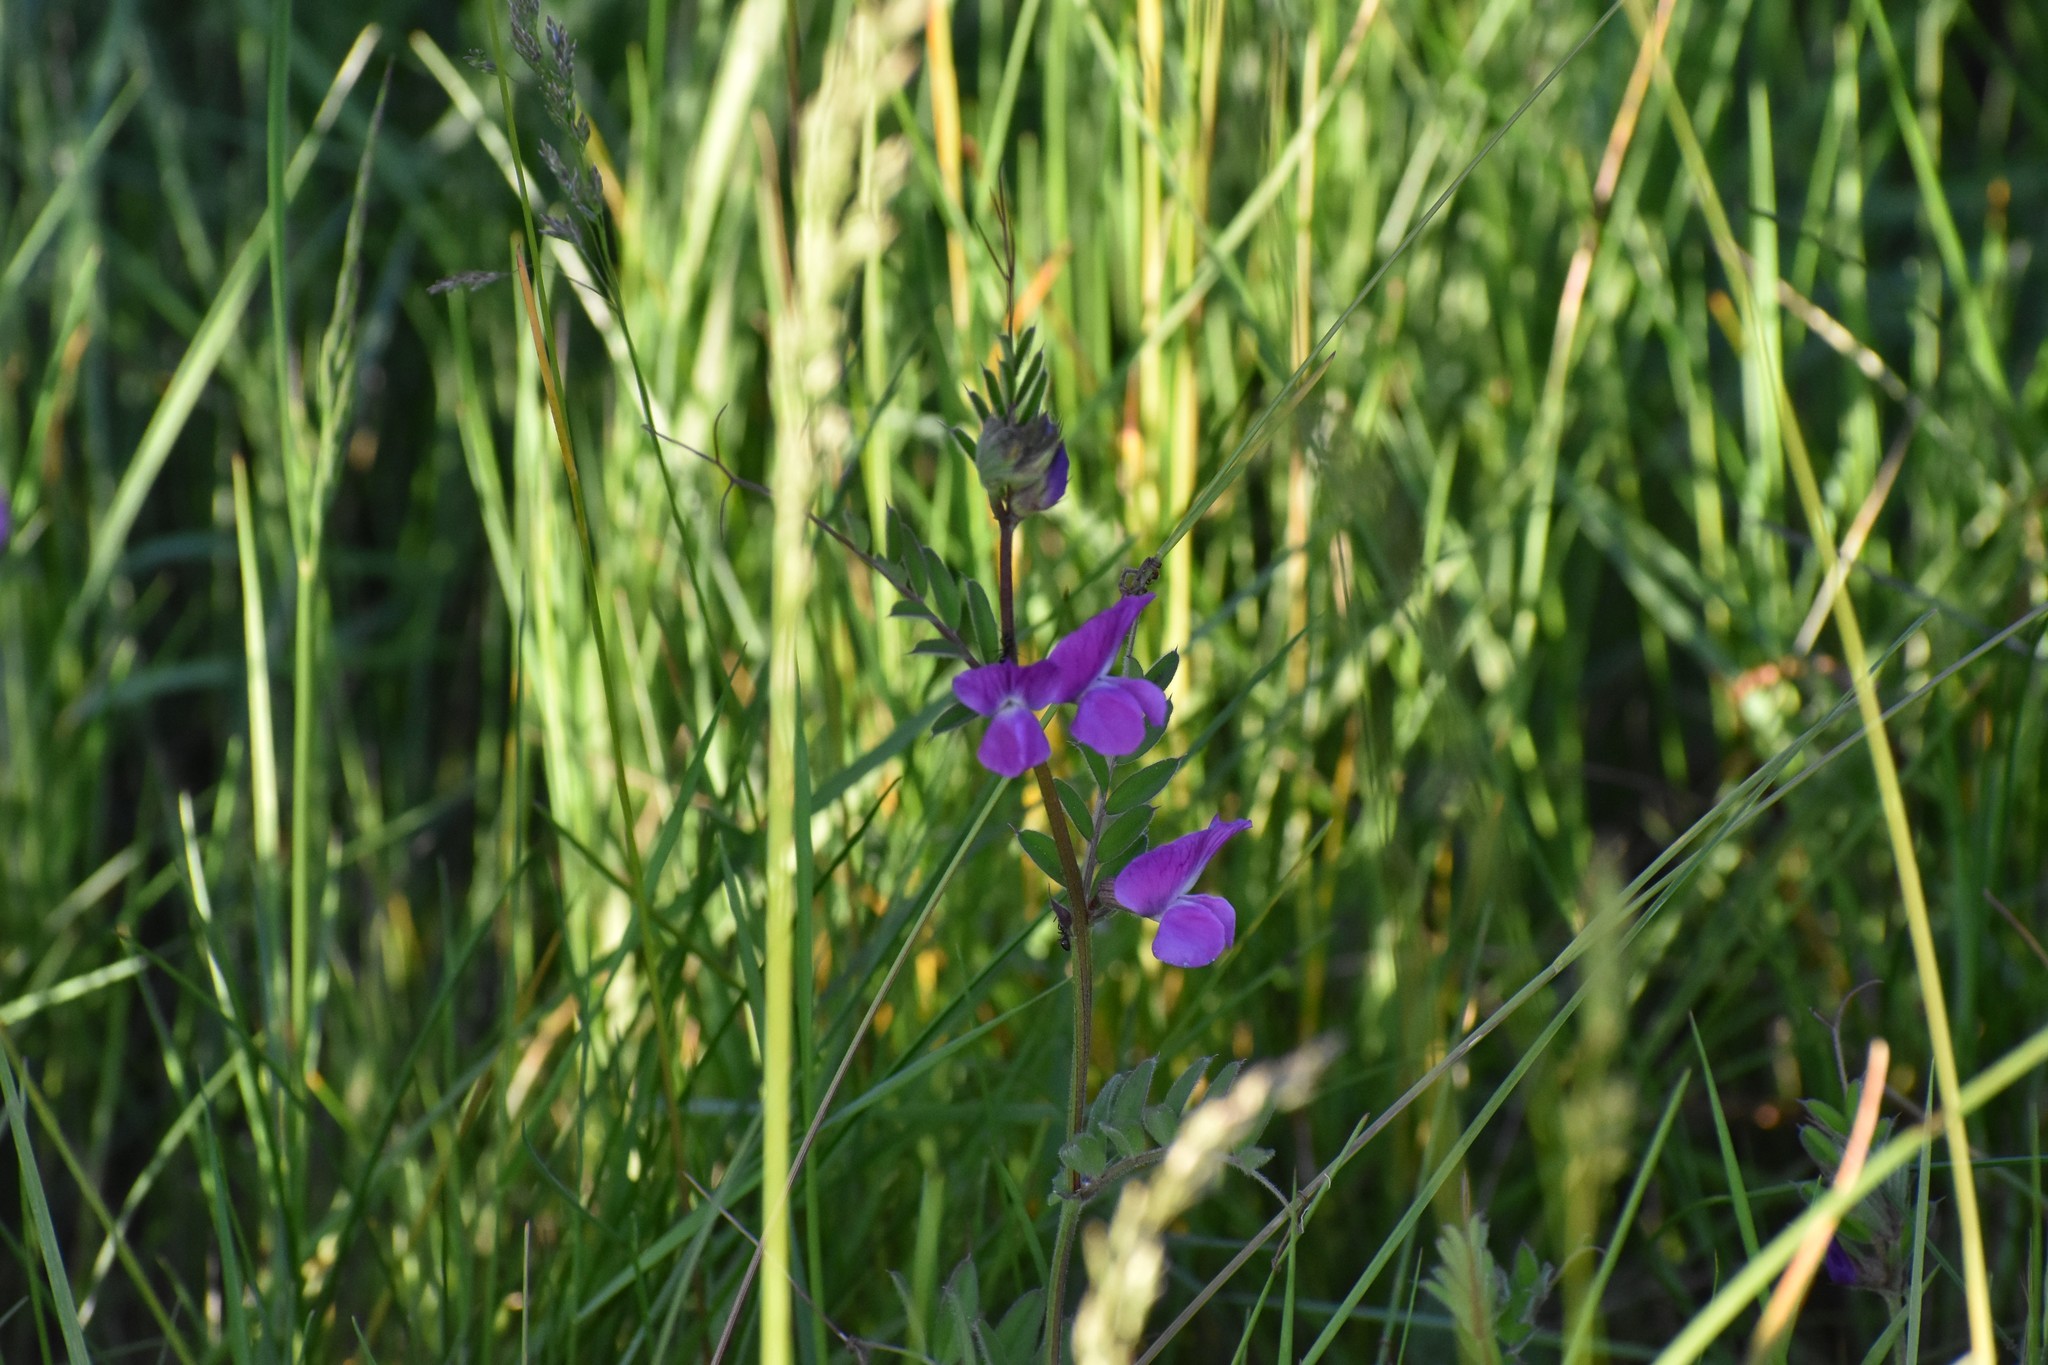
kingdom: Plantae
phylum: Tracheophyta
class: Magnoliopsida
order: Fabales
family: Fabaceae
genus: Vicia
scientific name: Vicia sativa
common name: Garden vetch
